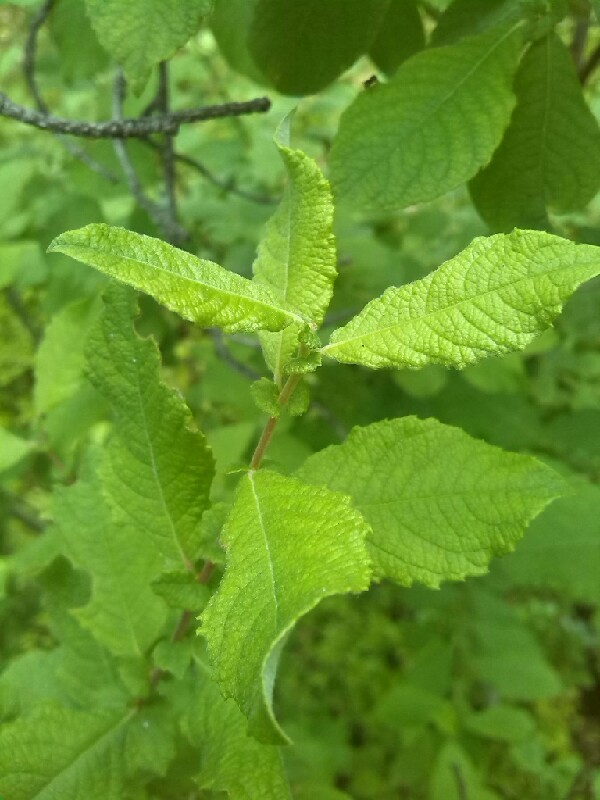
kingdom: Plantae
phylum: Tracheophyta
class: Magnoliopsida
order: Malpighiales
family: Salicaceae
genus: Salix
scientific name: Salix aurita
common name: Eared willow
